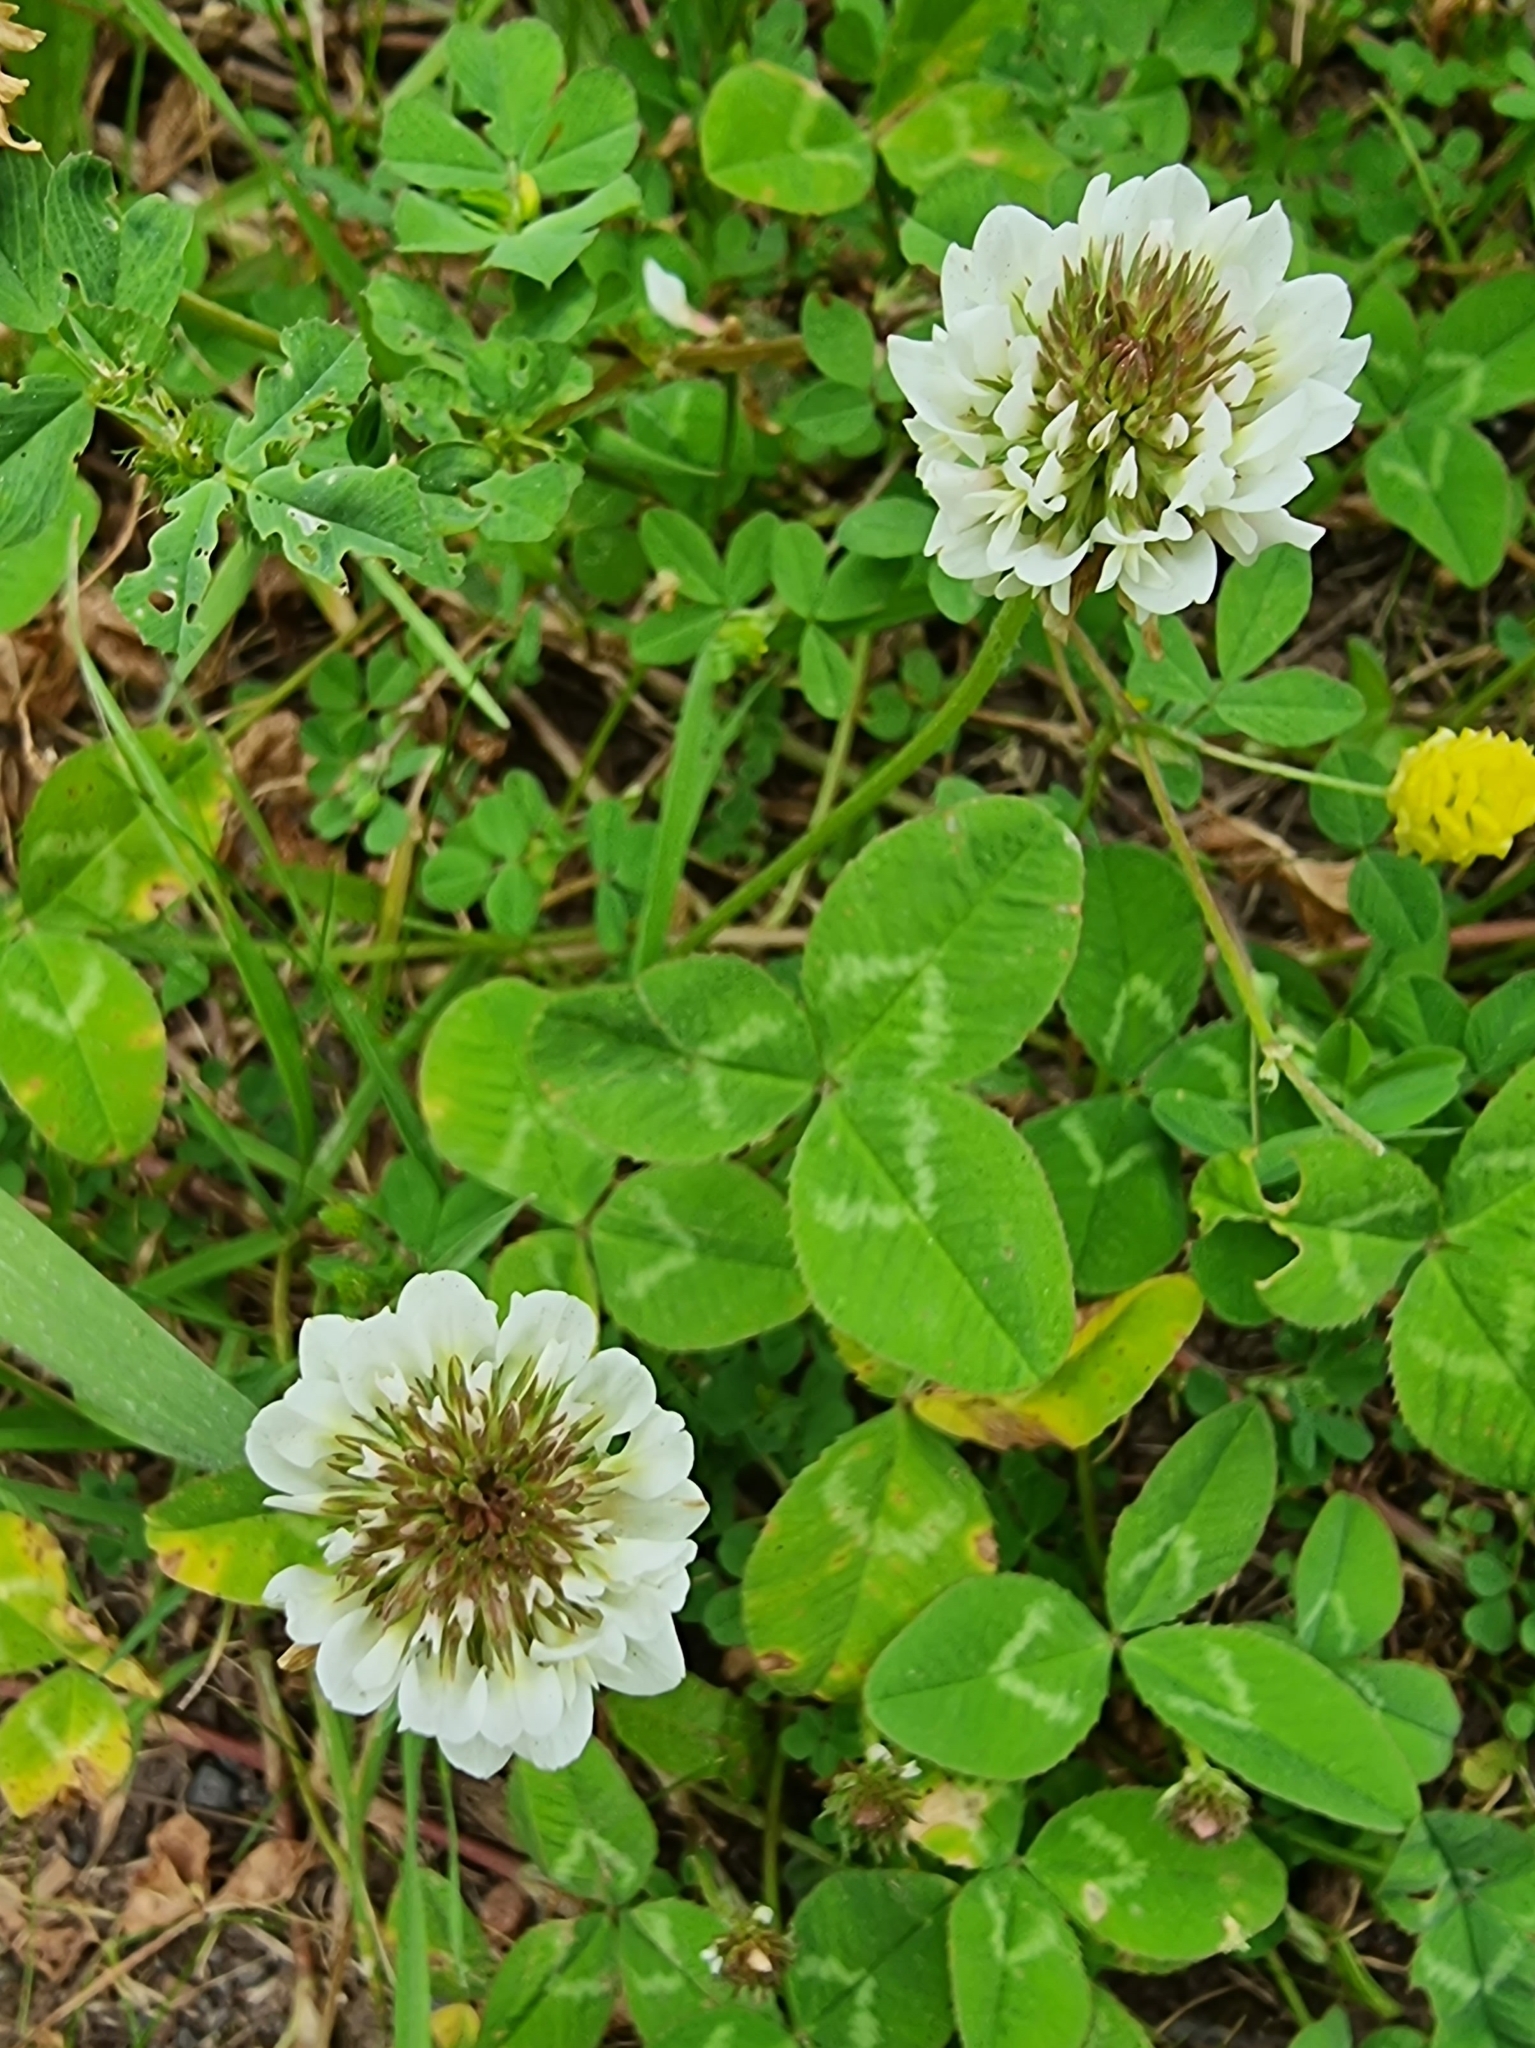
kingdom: Plantae
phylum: Tracheophyta
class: Magnoliopsida
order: Fabales
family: Fabaceae
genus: Trifolium
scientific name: Trifolium repens
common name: White clover
